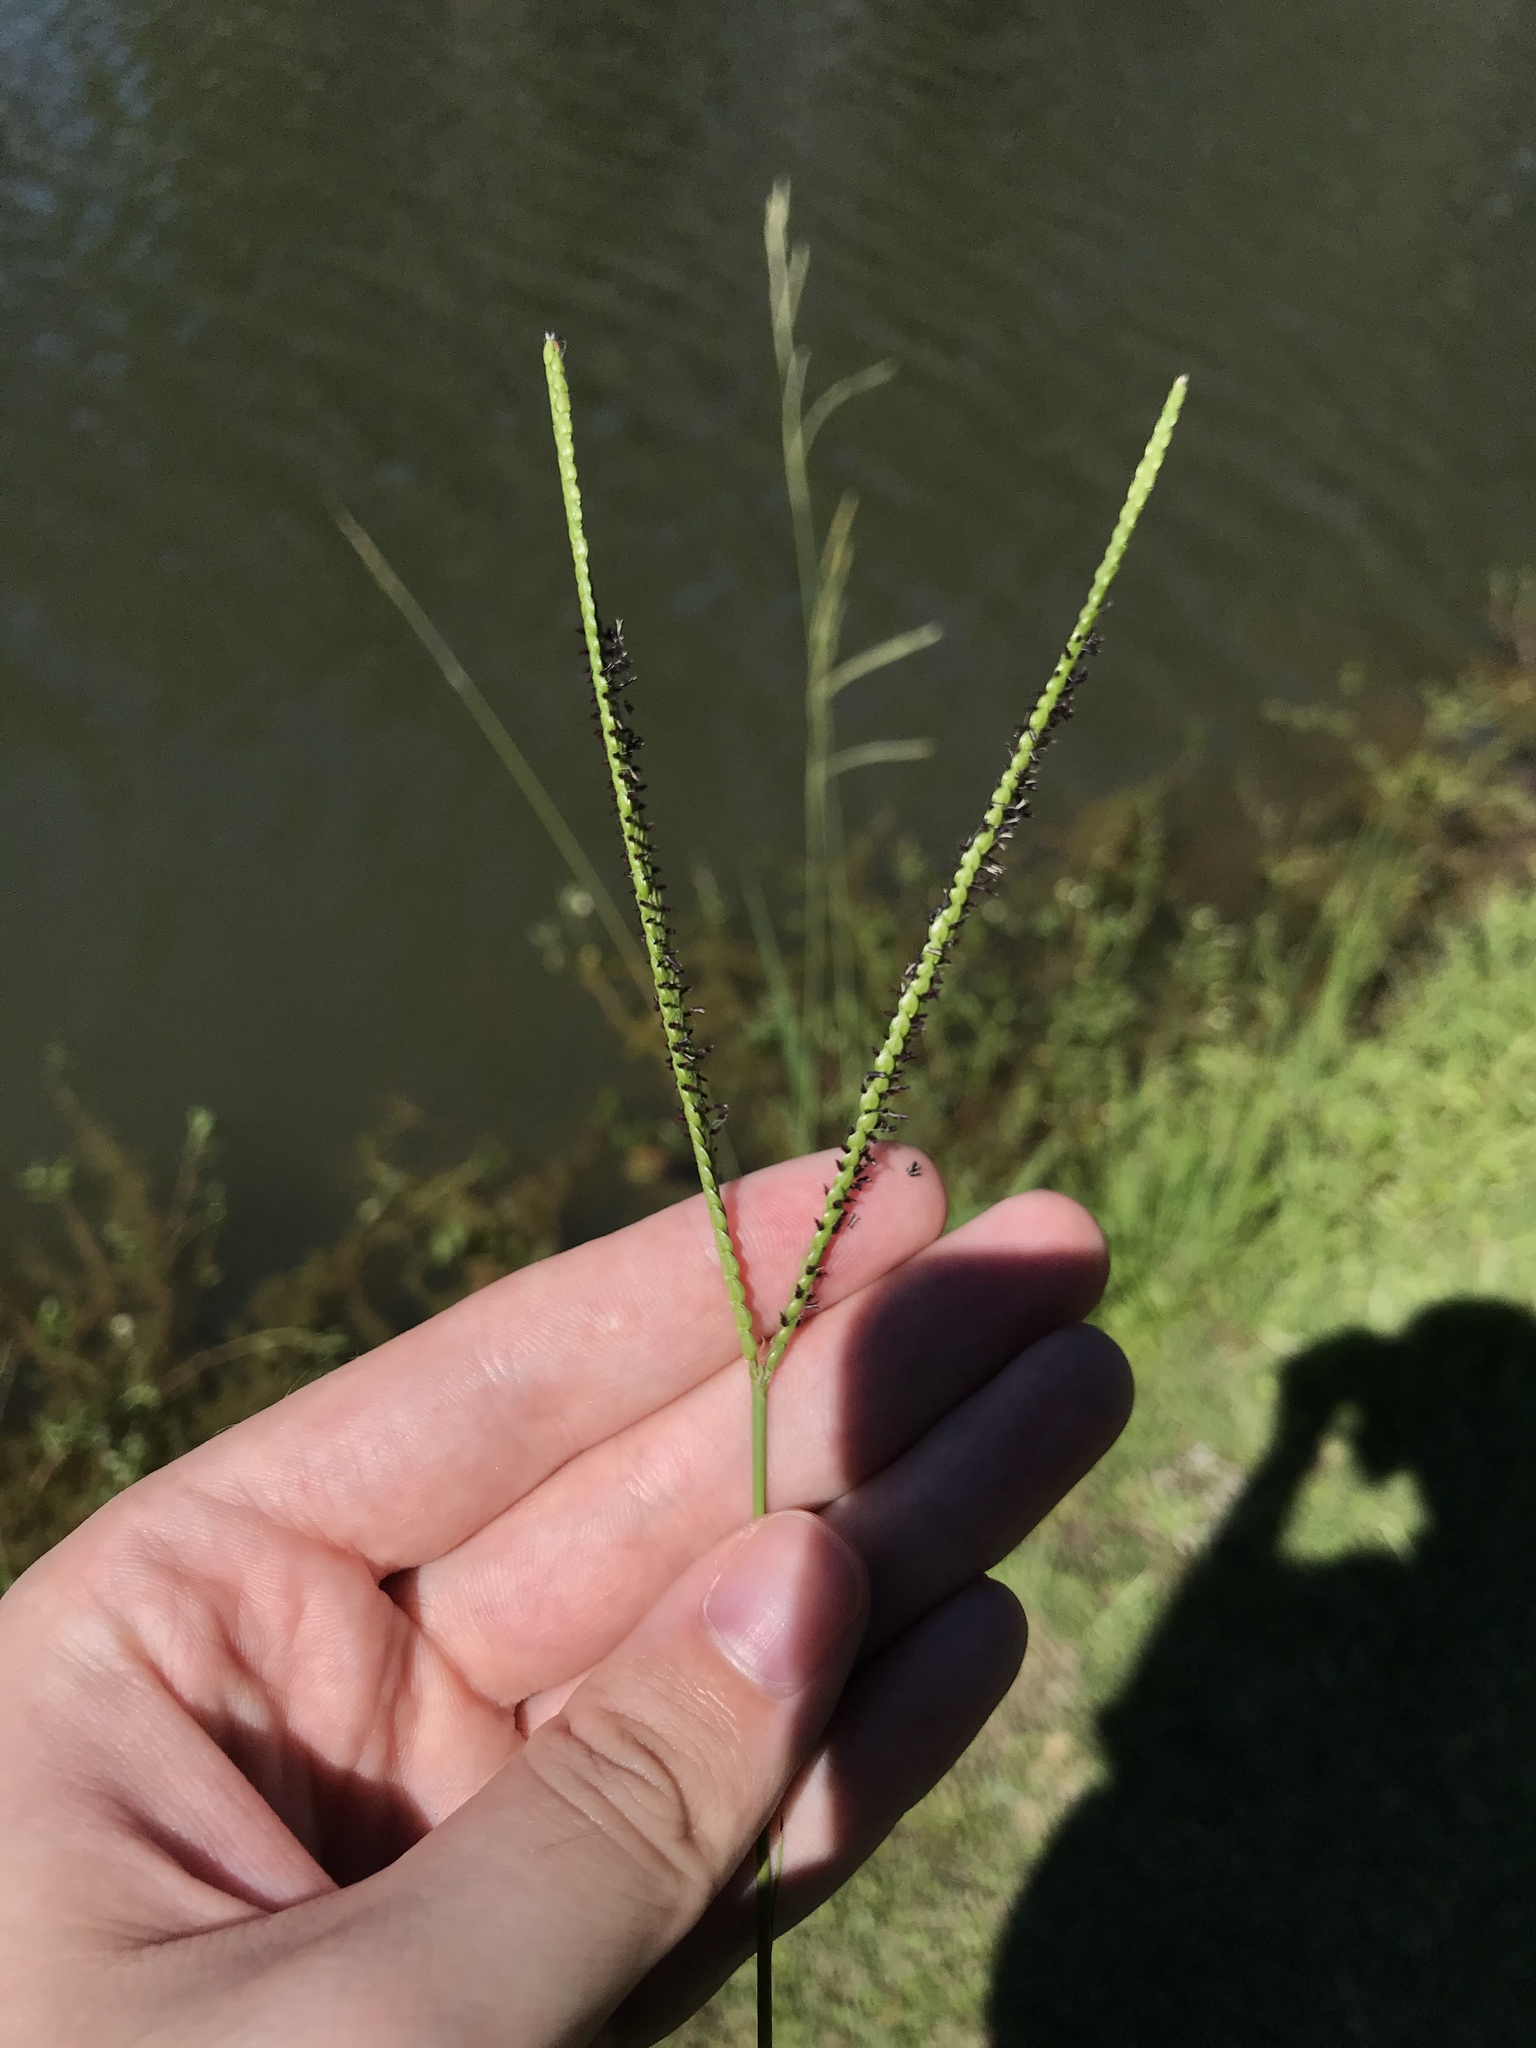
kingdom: Plantae
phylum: Tracheophyta
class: Liliopsida
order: Poales
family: Poaceae
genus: Paspalum
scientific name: Paspalum notatum
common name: Bahiagrass
